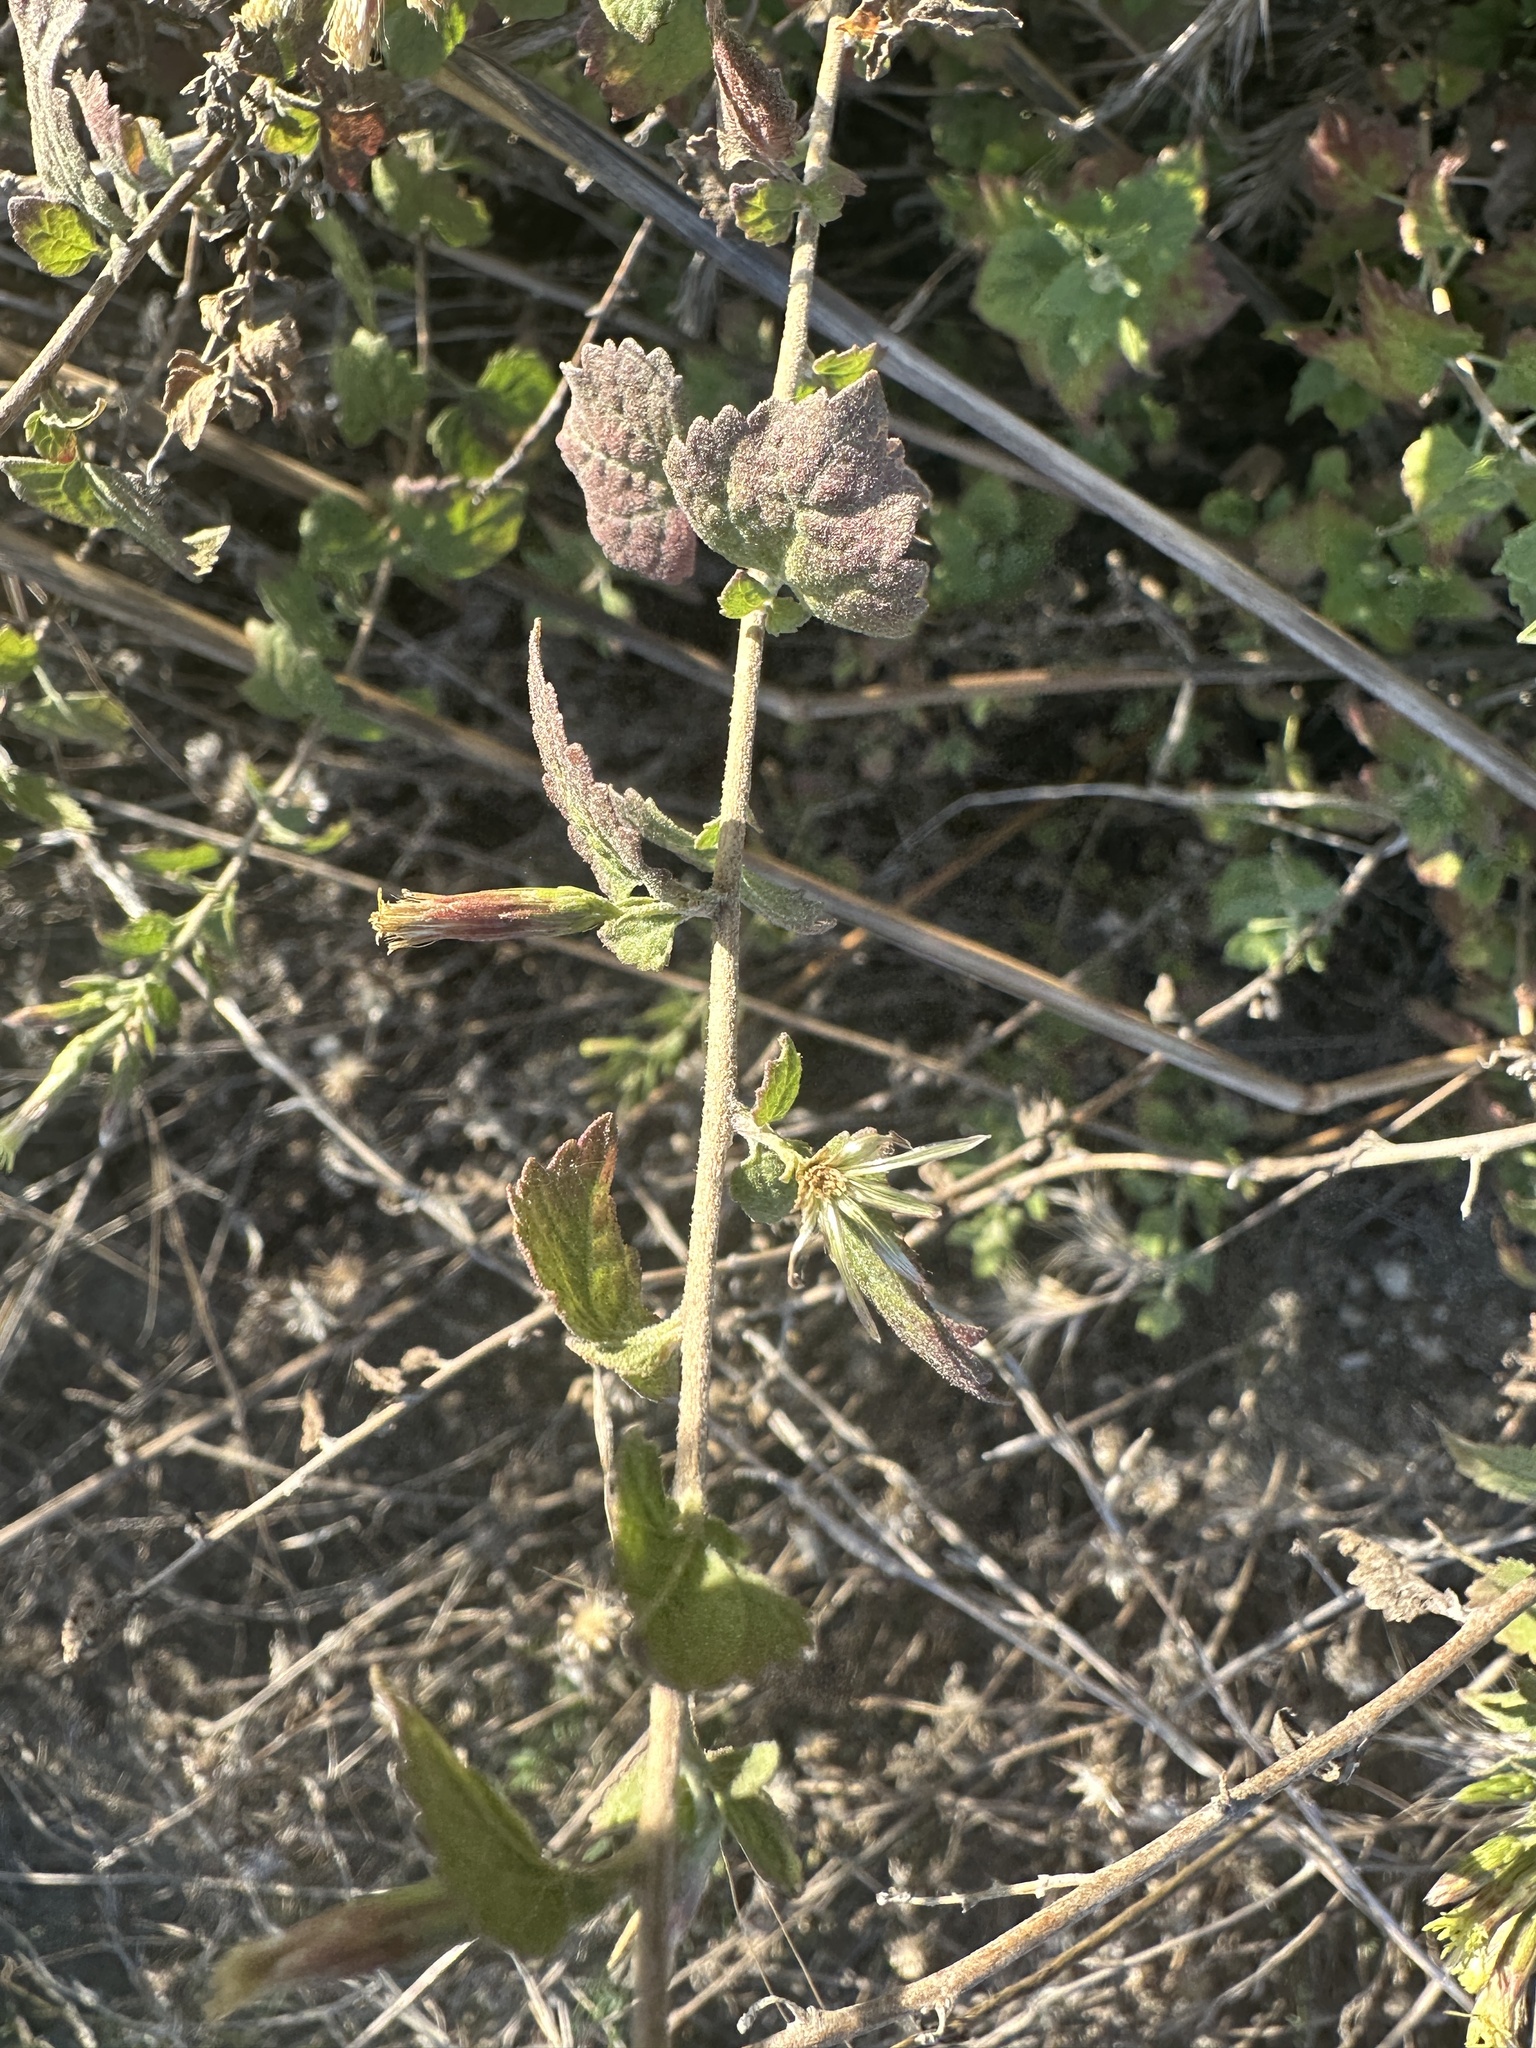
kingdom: Plantae
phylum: Tracheophyta
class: Magnoliopsida
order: Asterales
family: Asteraceae
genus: Brickellia
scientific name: Brickellia californica
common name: California brickellbush
